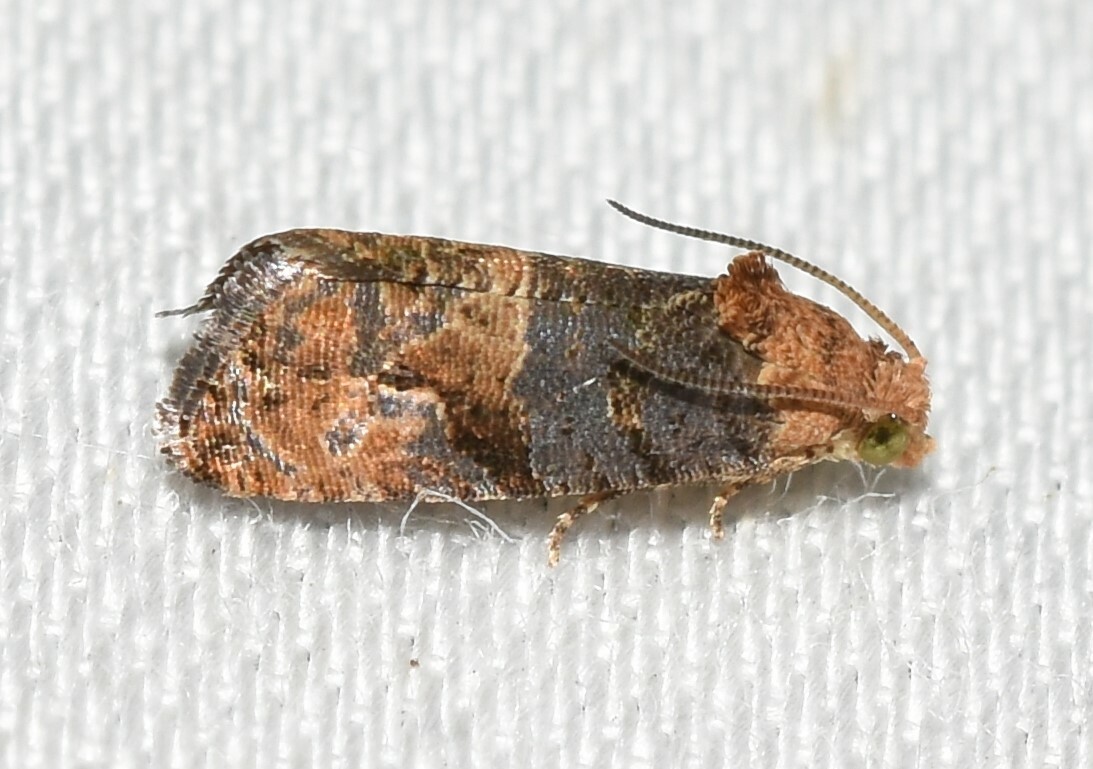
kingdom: Animalia
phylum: Arthropoda
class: Insecta
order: Lepidoptera
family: Tortricidae
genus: Paralobesia
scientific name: Paralobesia viteana
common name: Grape berry moth
